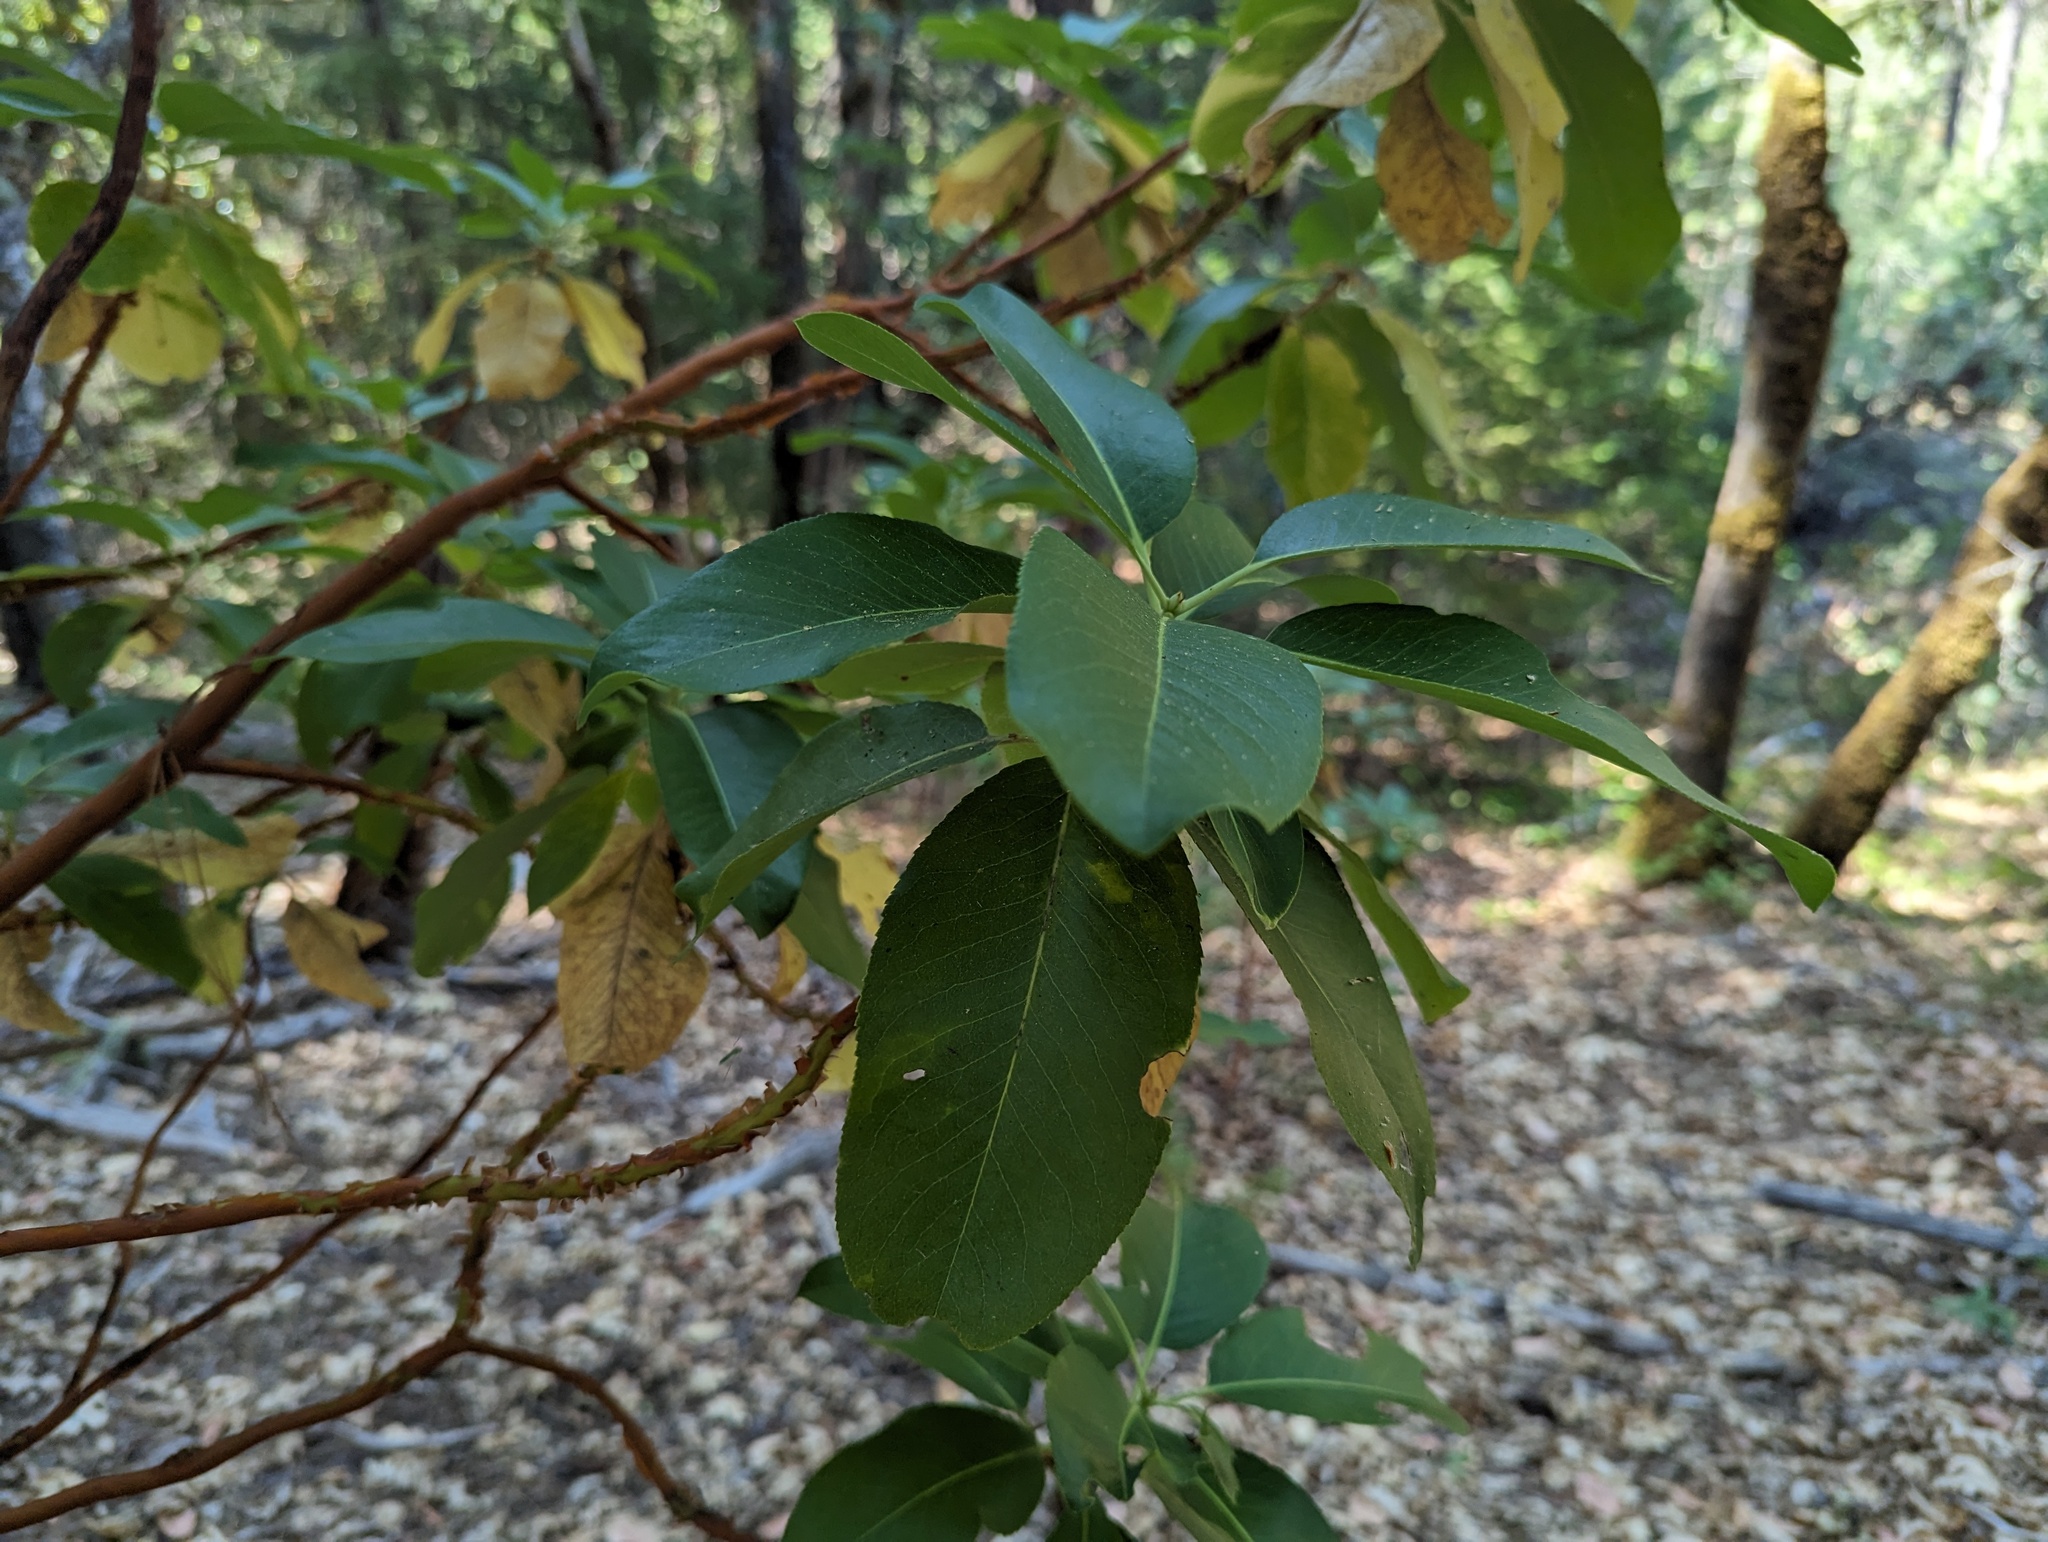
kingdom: Plantae
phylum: Tracheophyta
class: Magnoliopsida
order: Ericales
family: Ericaceae
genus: Arbutus
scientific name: Arbutus menziesii
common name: Pacific madrone
